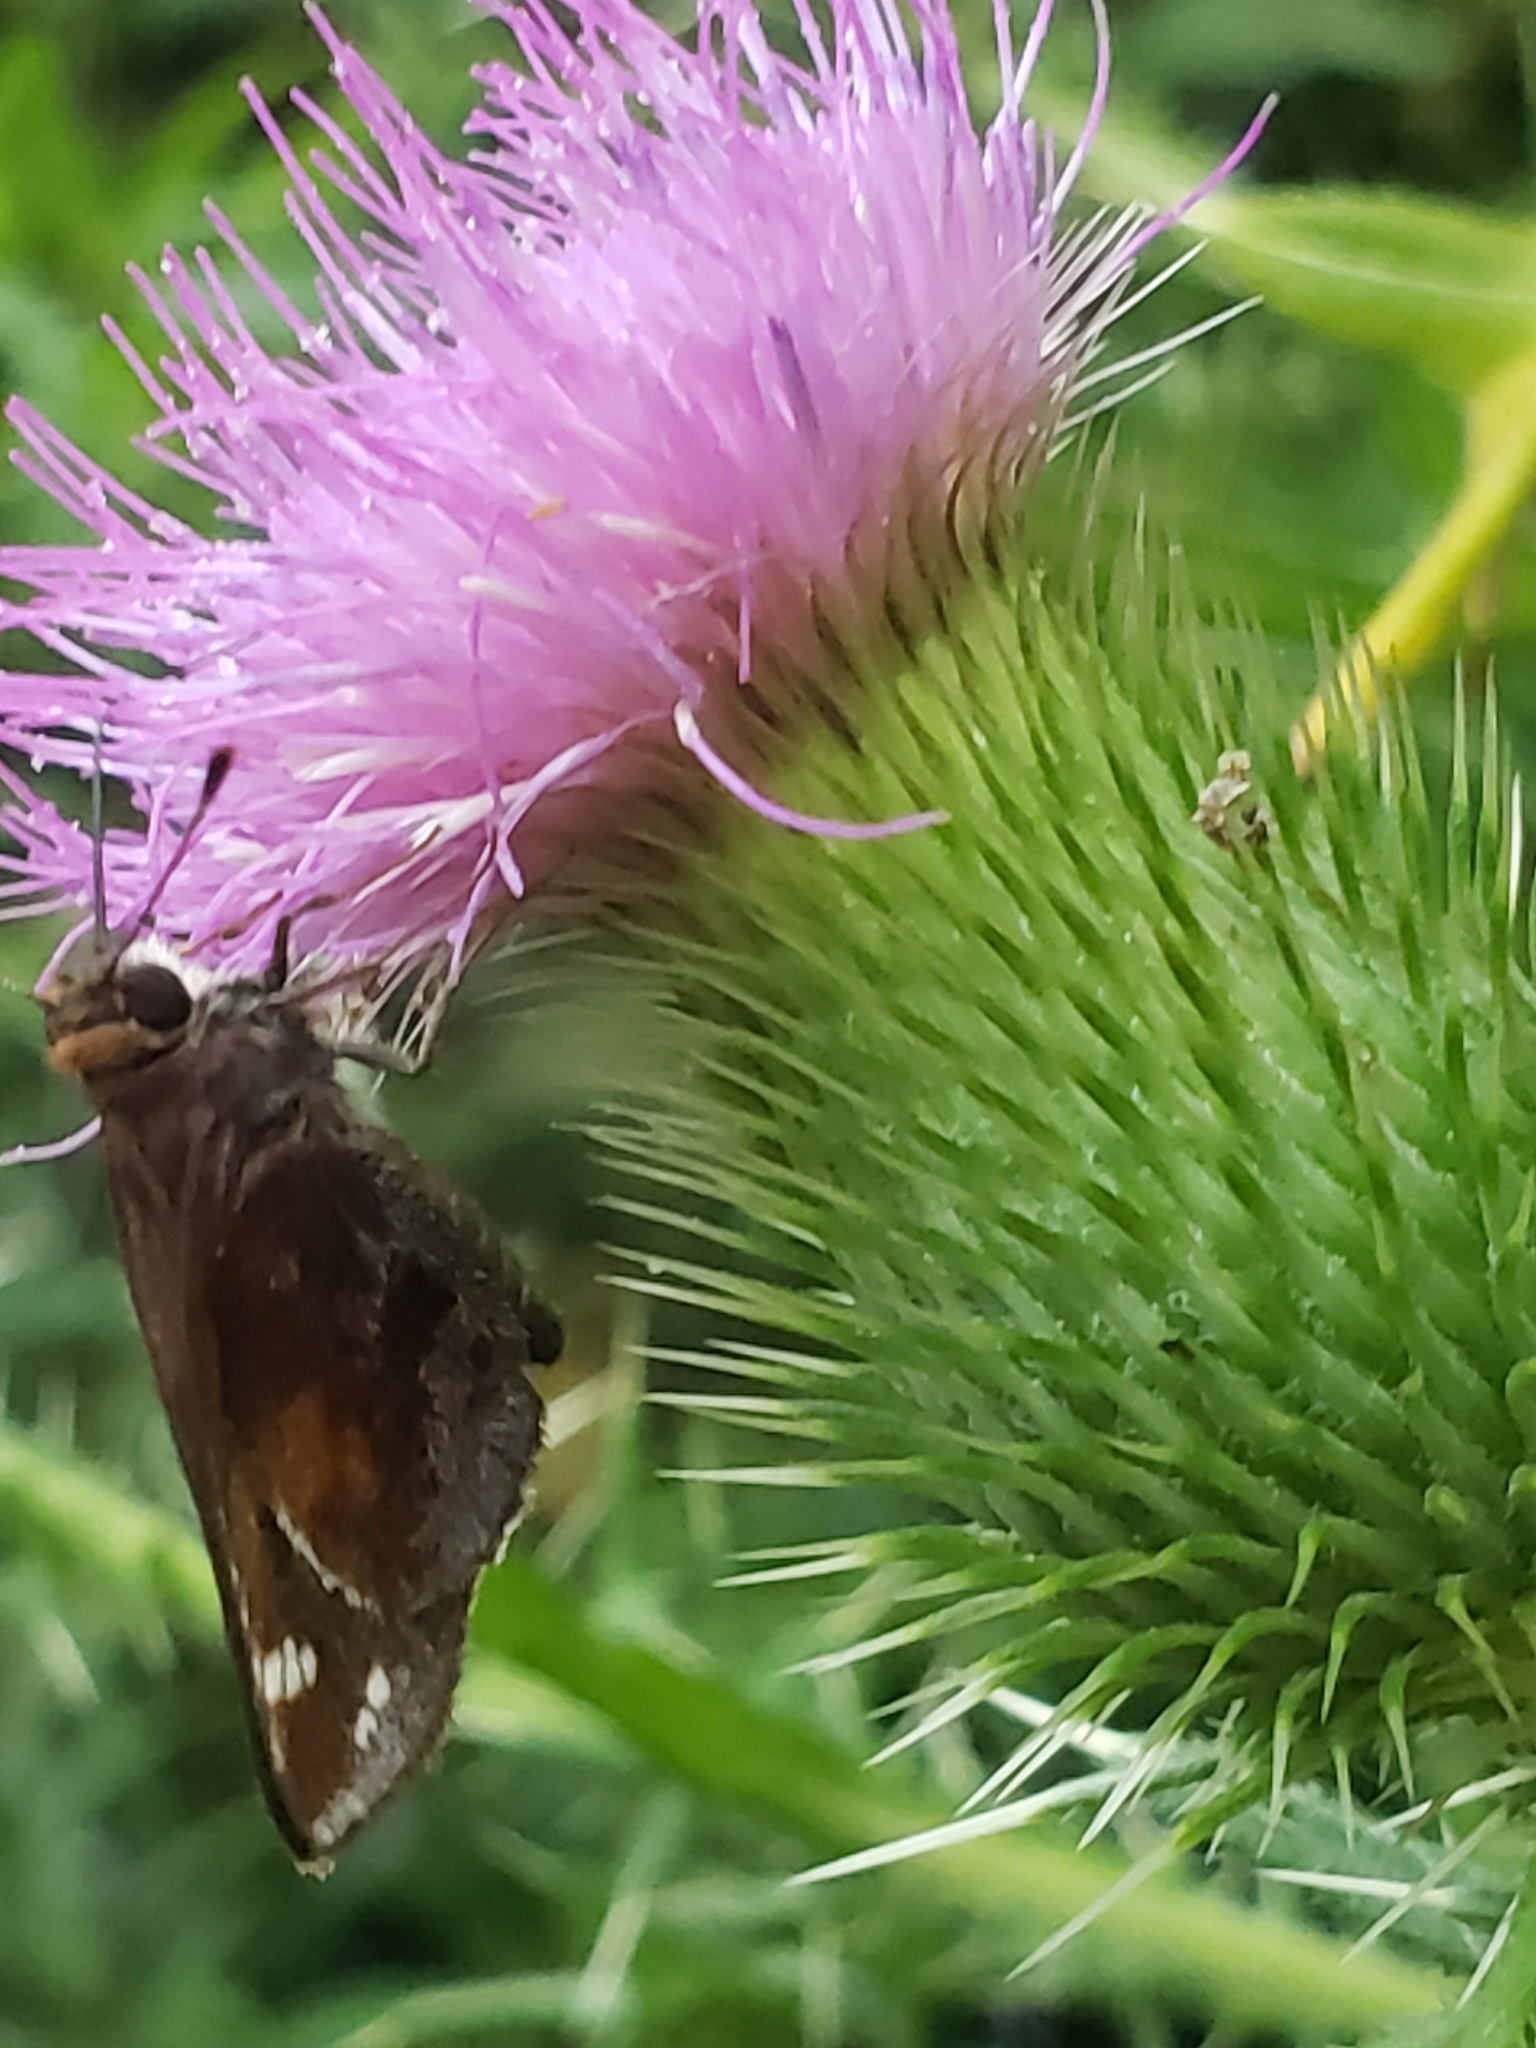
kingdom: Animalia
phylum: Arthropoda
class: Insecta
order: Lepidoptera
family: Hesperiidae
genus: Lon
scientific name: Lon zabulon
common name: Zabulon skipper
